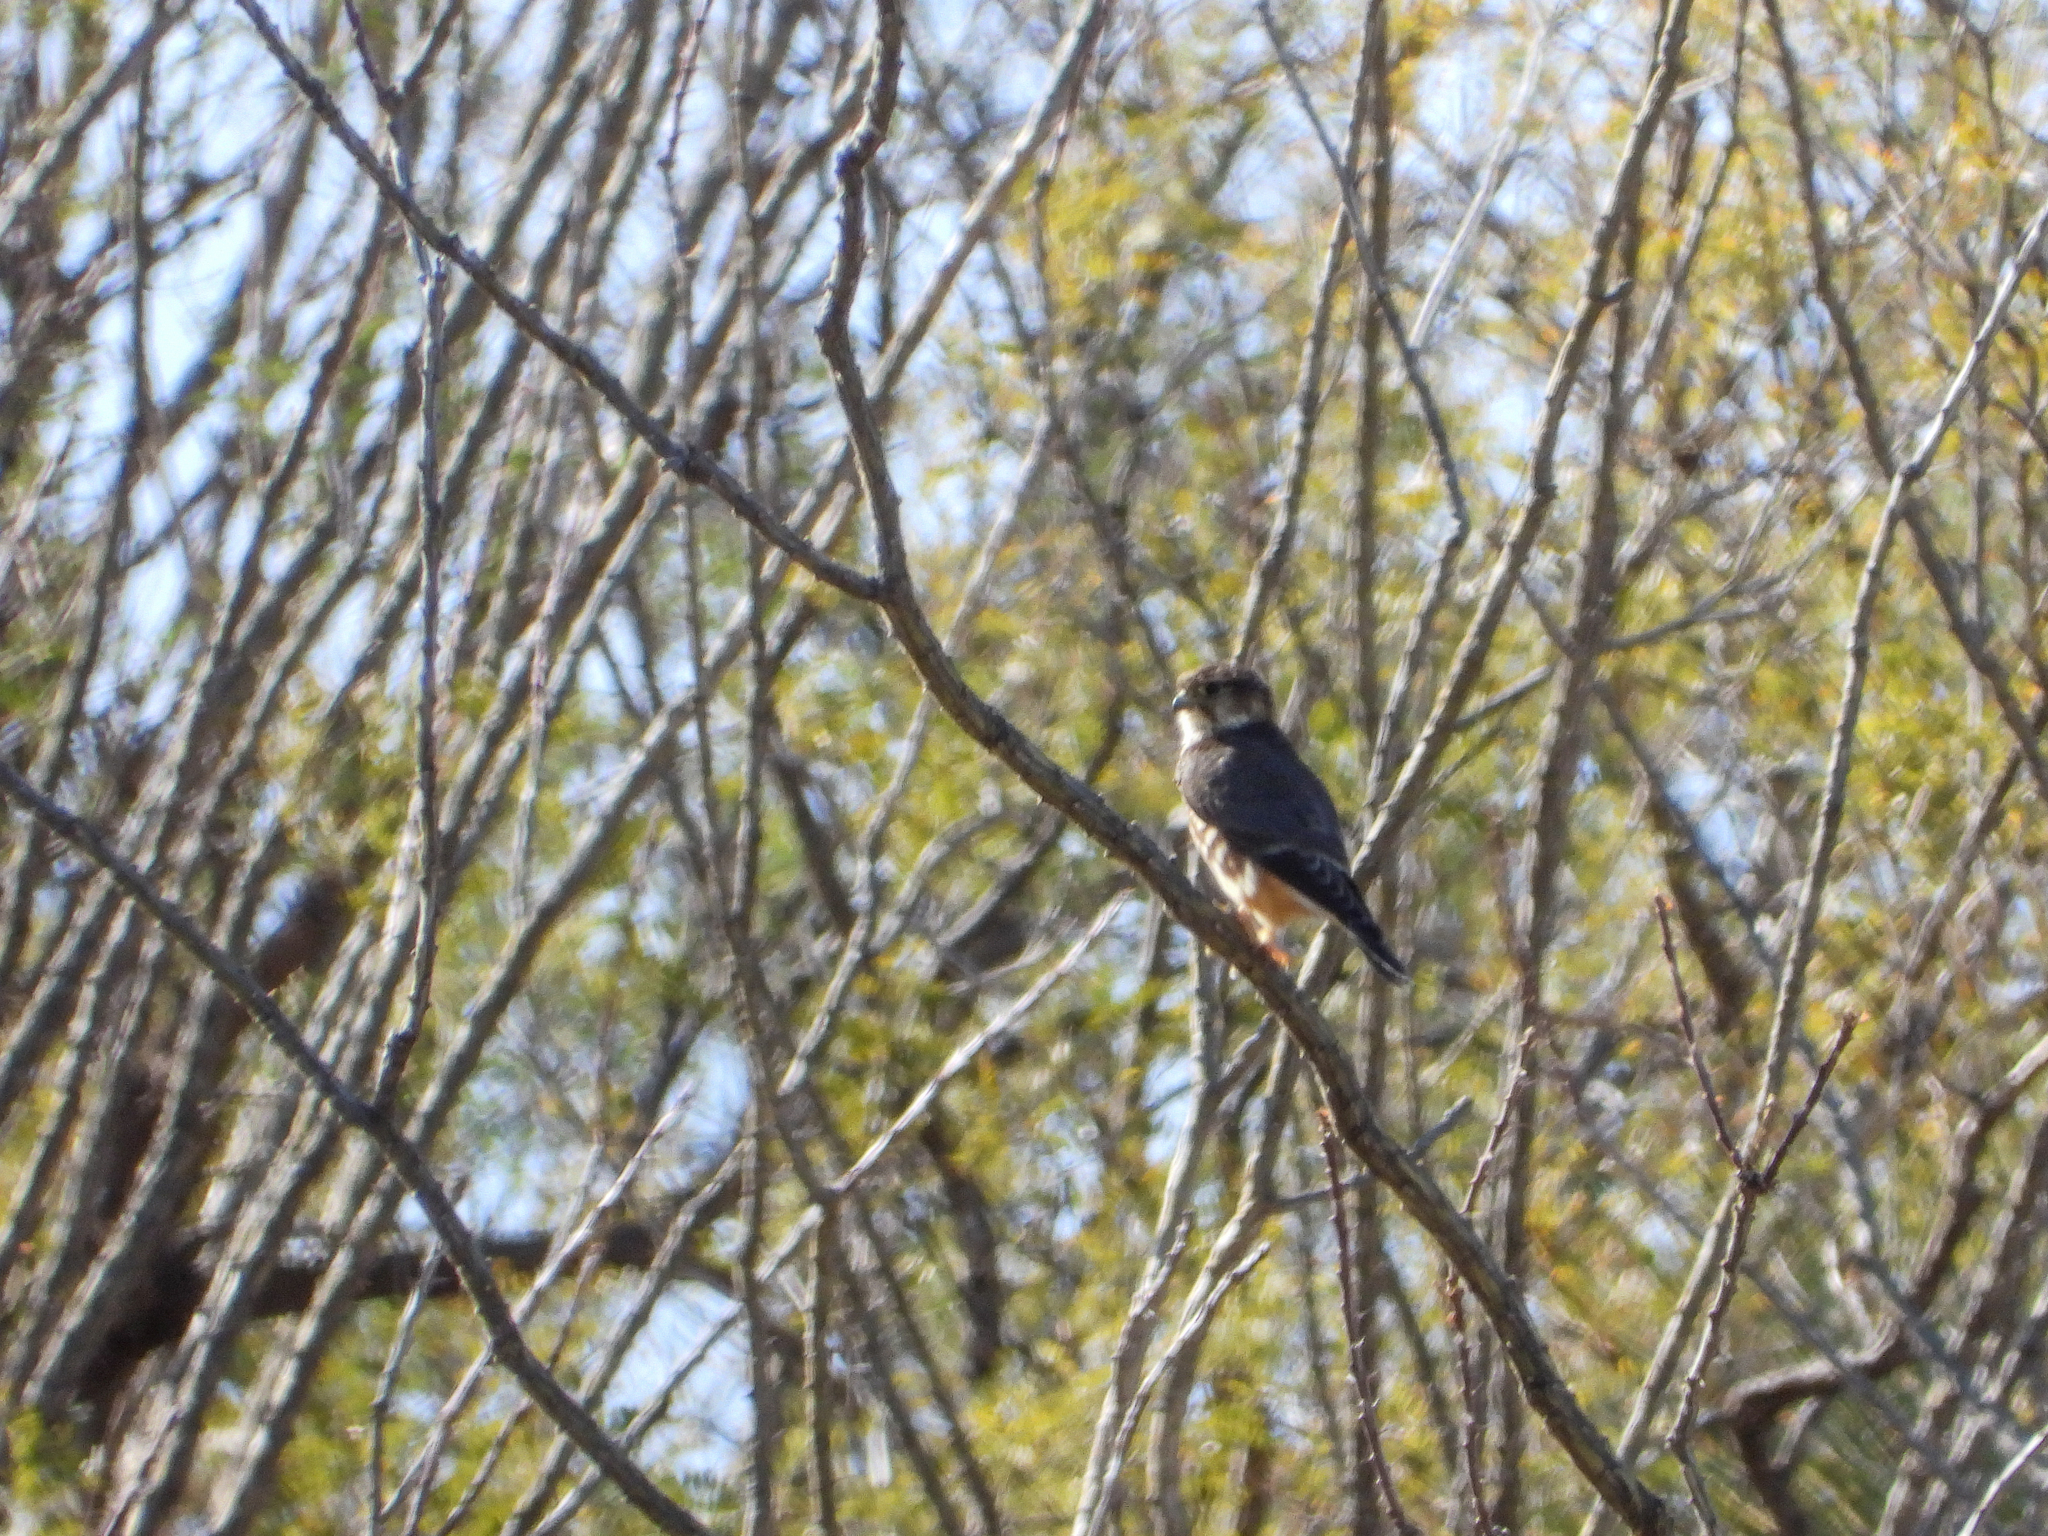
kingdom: Animalia
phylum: Chordata
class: Aves
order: Falconiformes
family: Falconidae
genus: Falco
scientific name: Falco columbarius
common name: Merlin
